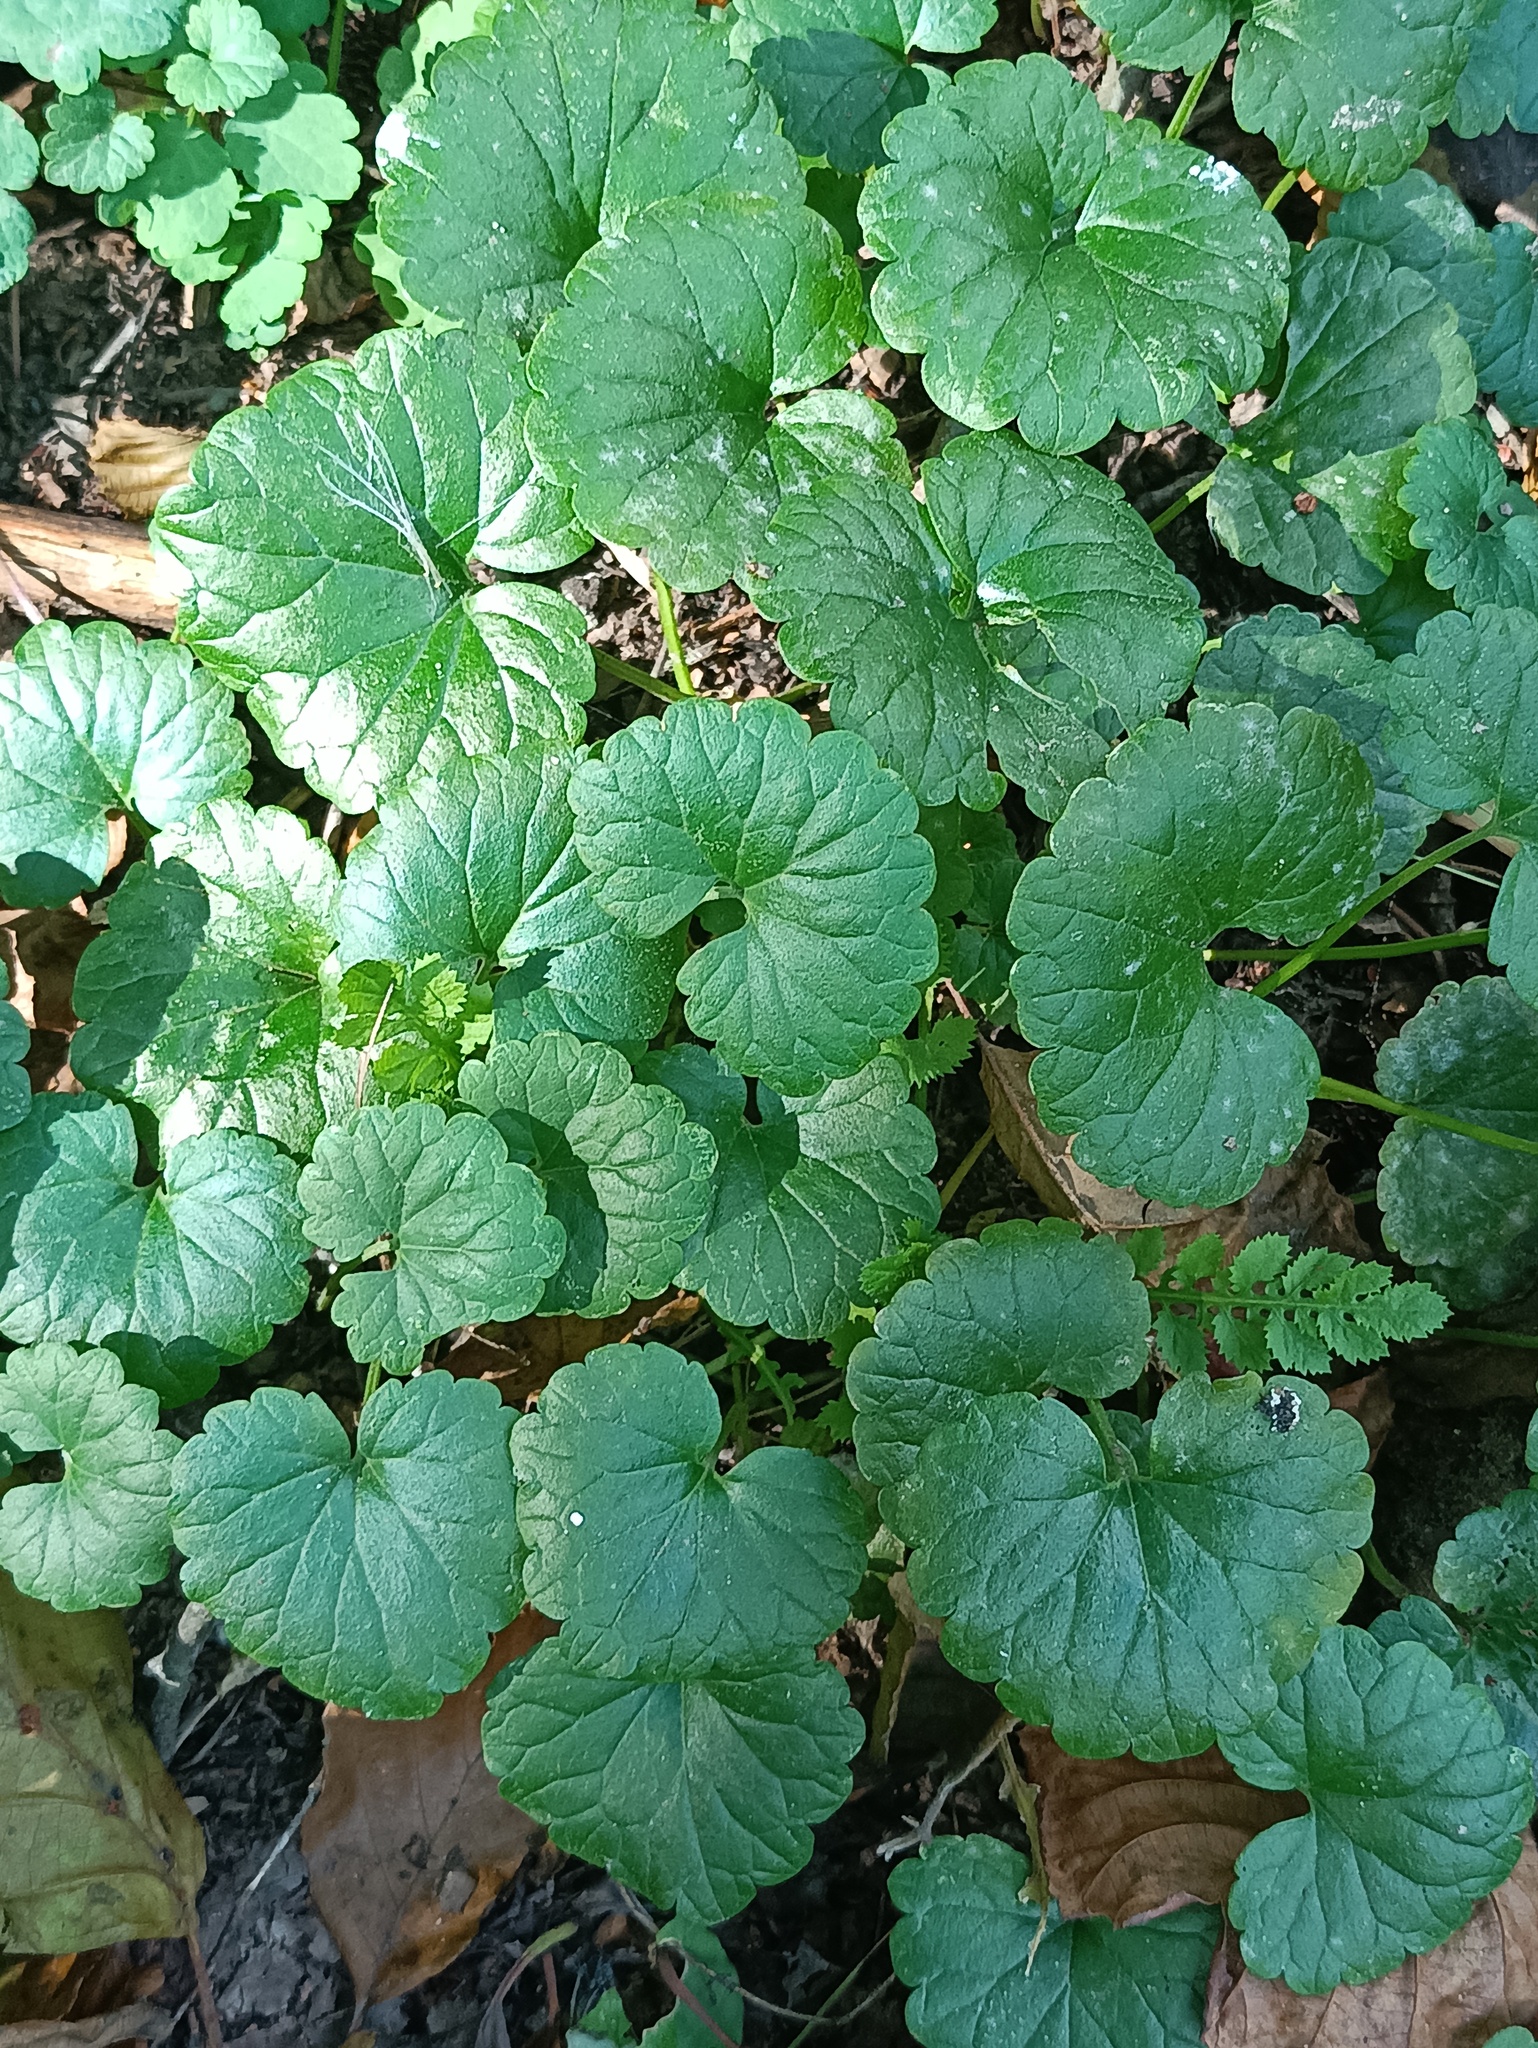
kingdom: Plantae
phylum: Tracheophyta
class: Magnoliopsida
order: Lamiales
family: Lamiaceae
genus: Glechoma
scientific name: Glechoma hederacea
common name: Ground ivy
